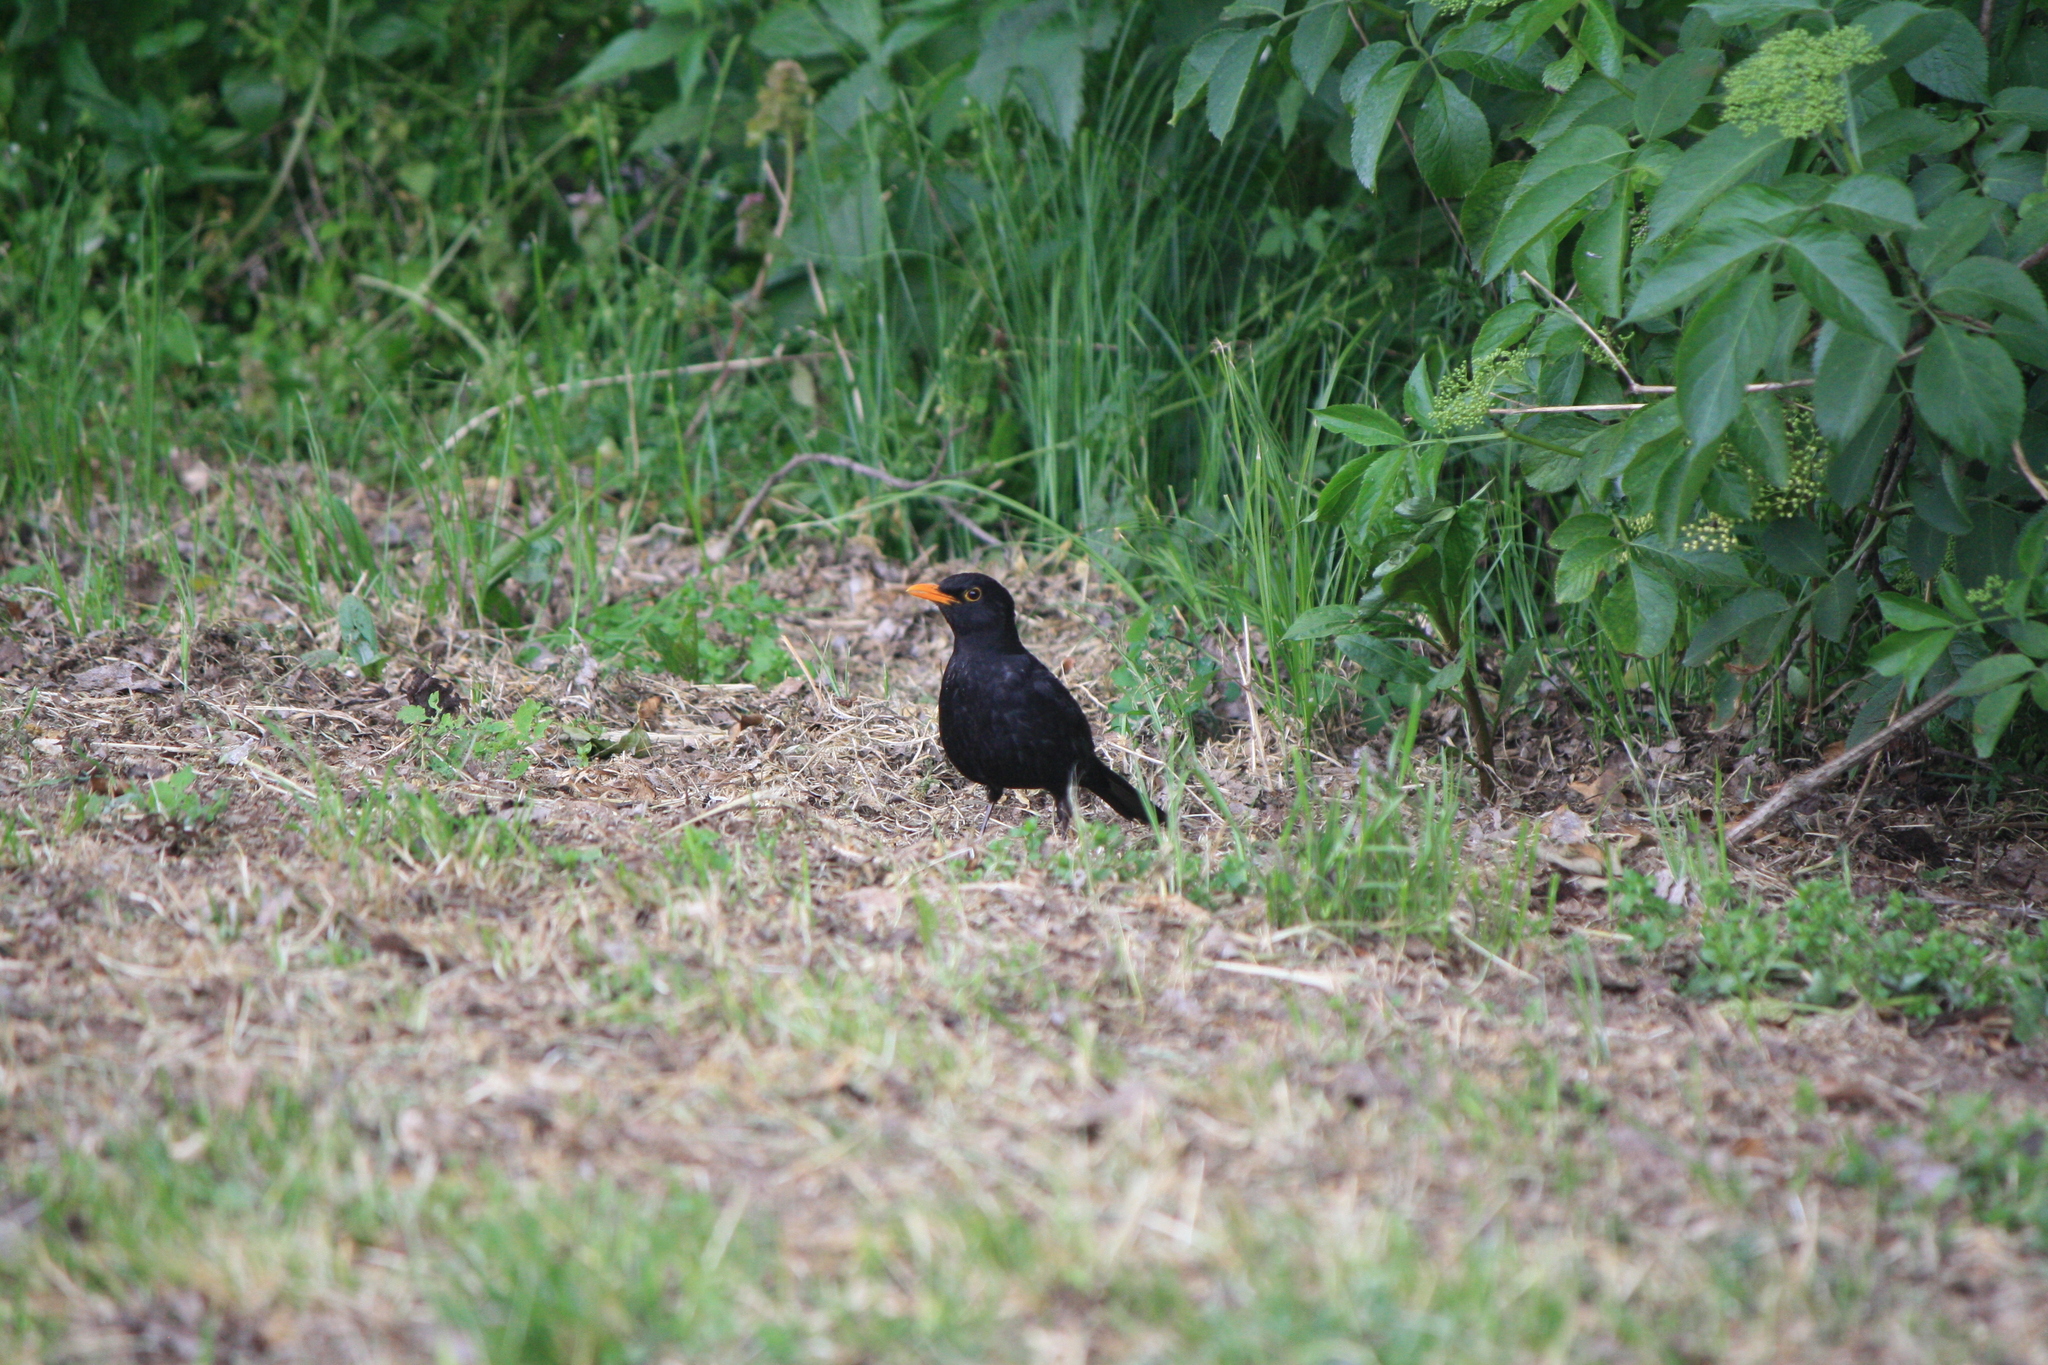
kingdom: Animalia
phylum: Chordata
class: Aves
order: Passeriformes
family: Turdidae
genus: Turdus
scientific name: Turdus merula
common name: Common blackbird
